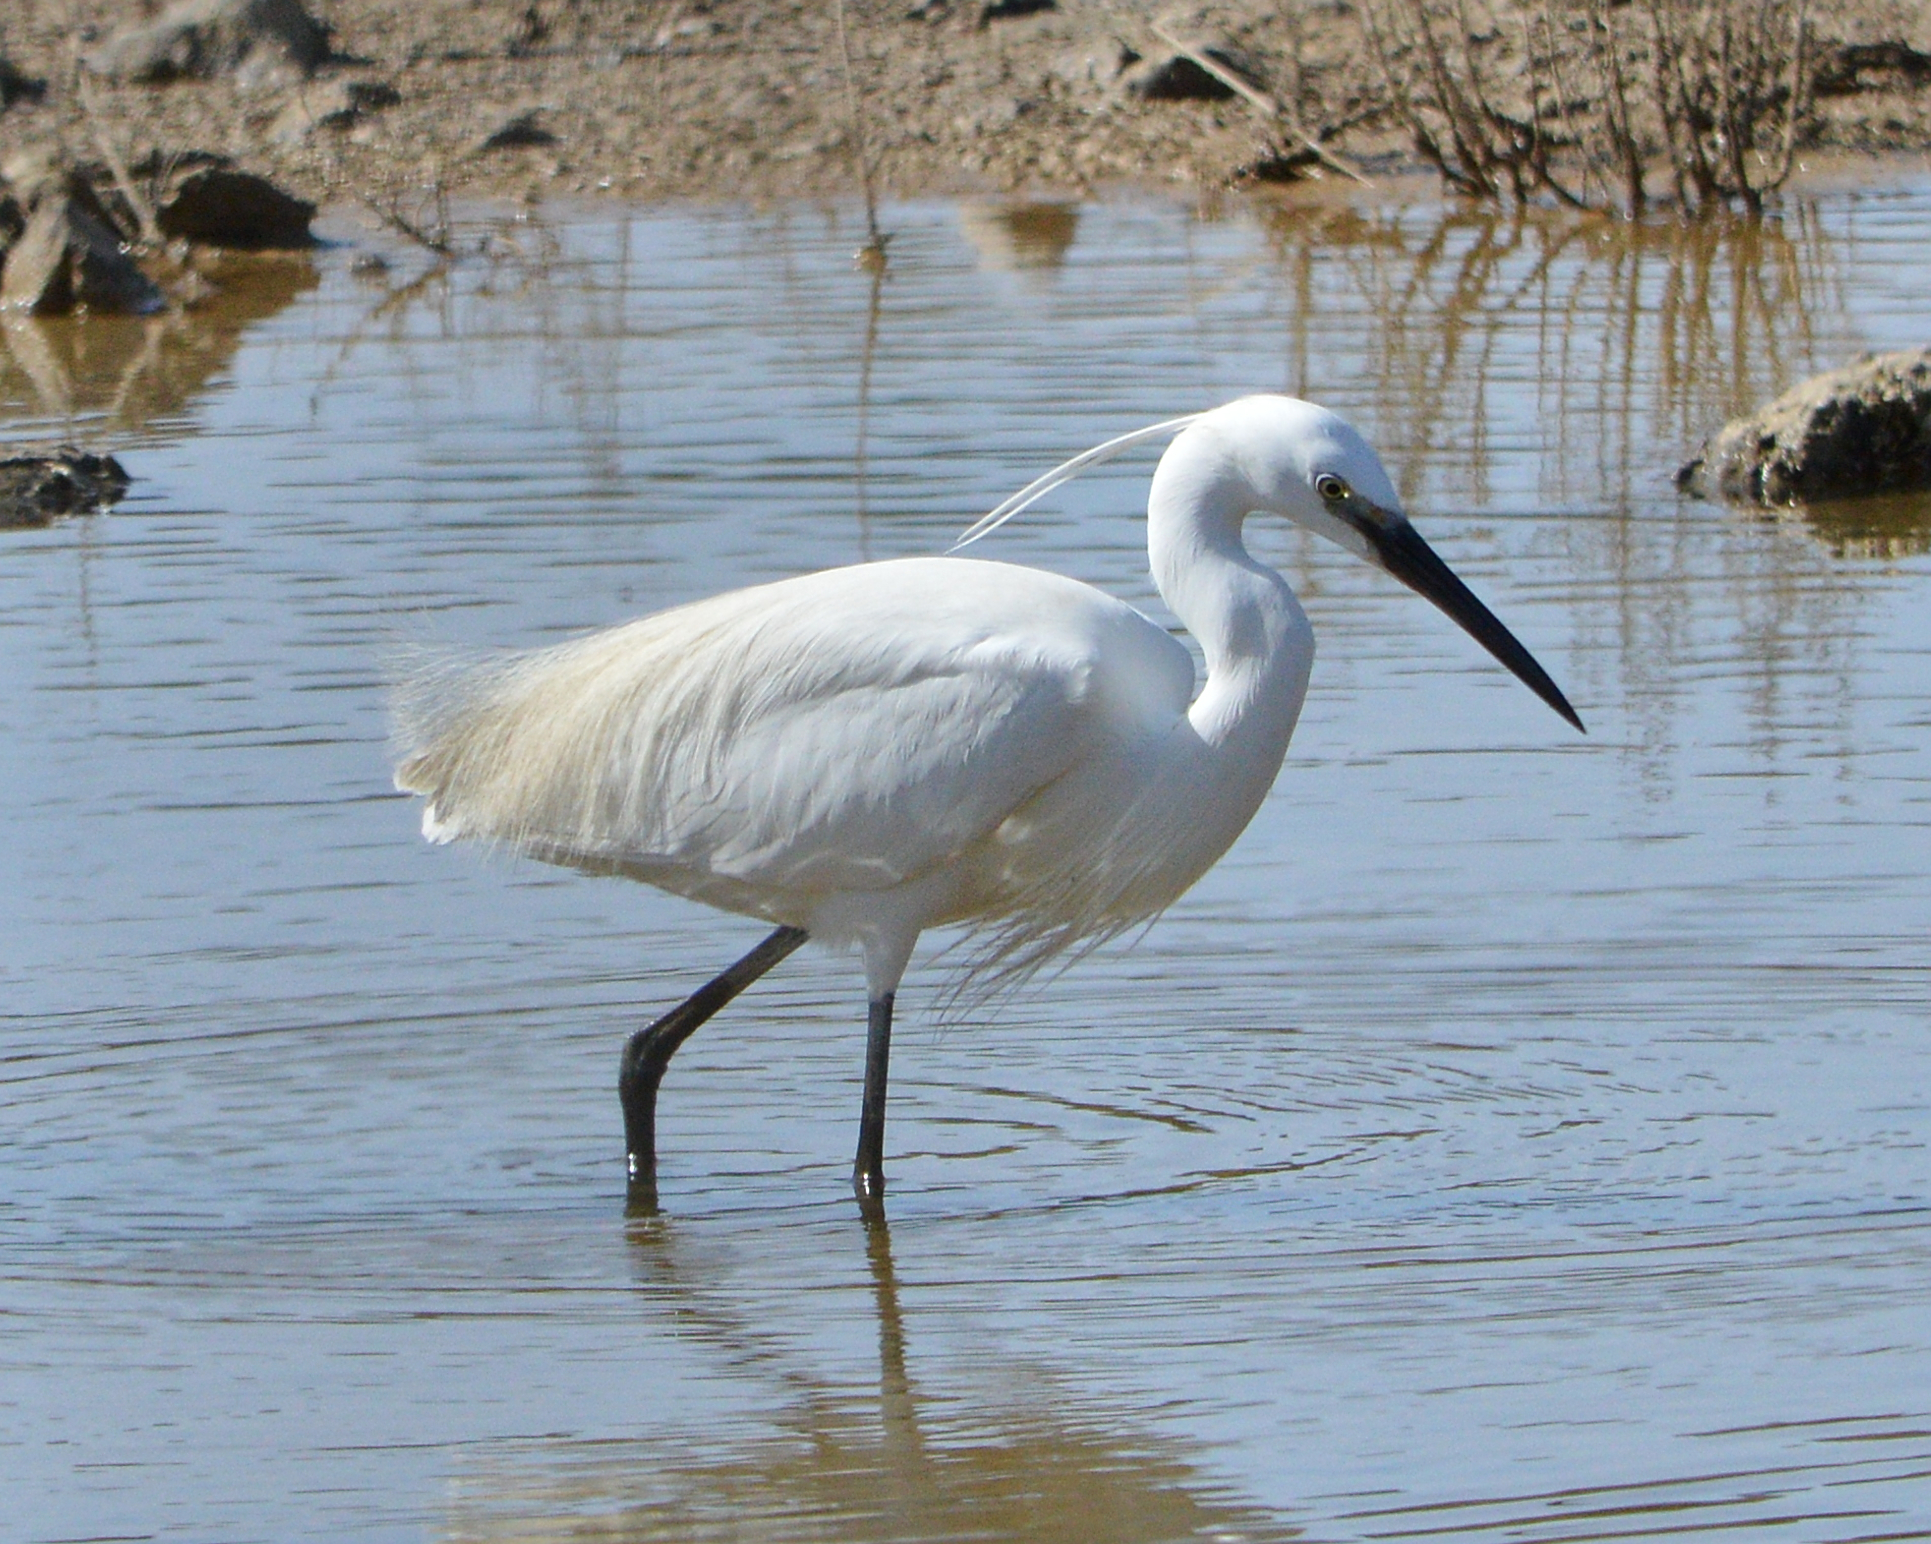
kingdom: Animalia
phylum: Chordata
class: Aves
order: Pelecaniformes
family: Ardeidae
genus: Egretta
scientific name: Egretta garzetta
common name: Little egret
